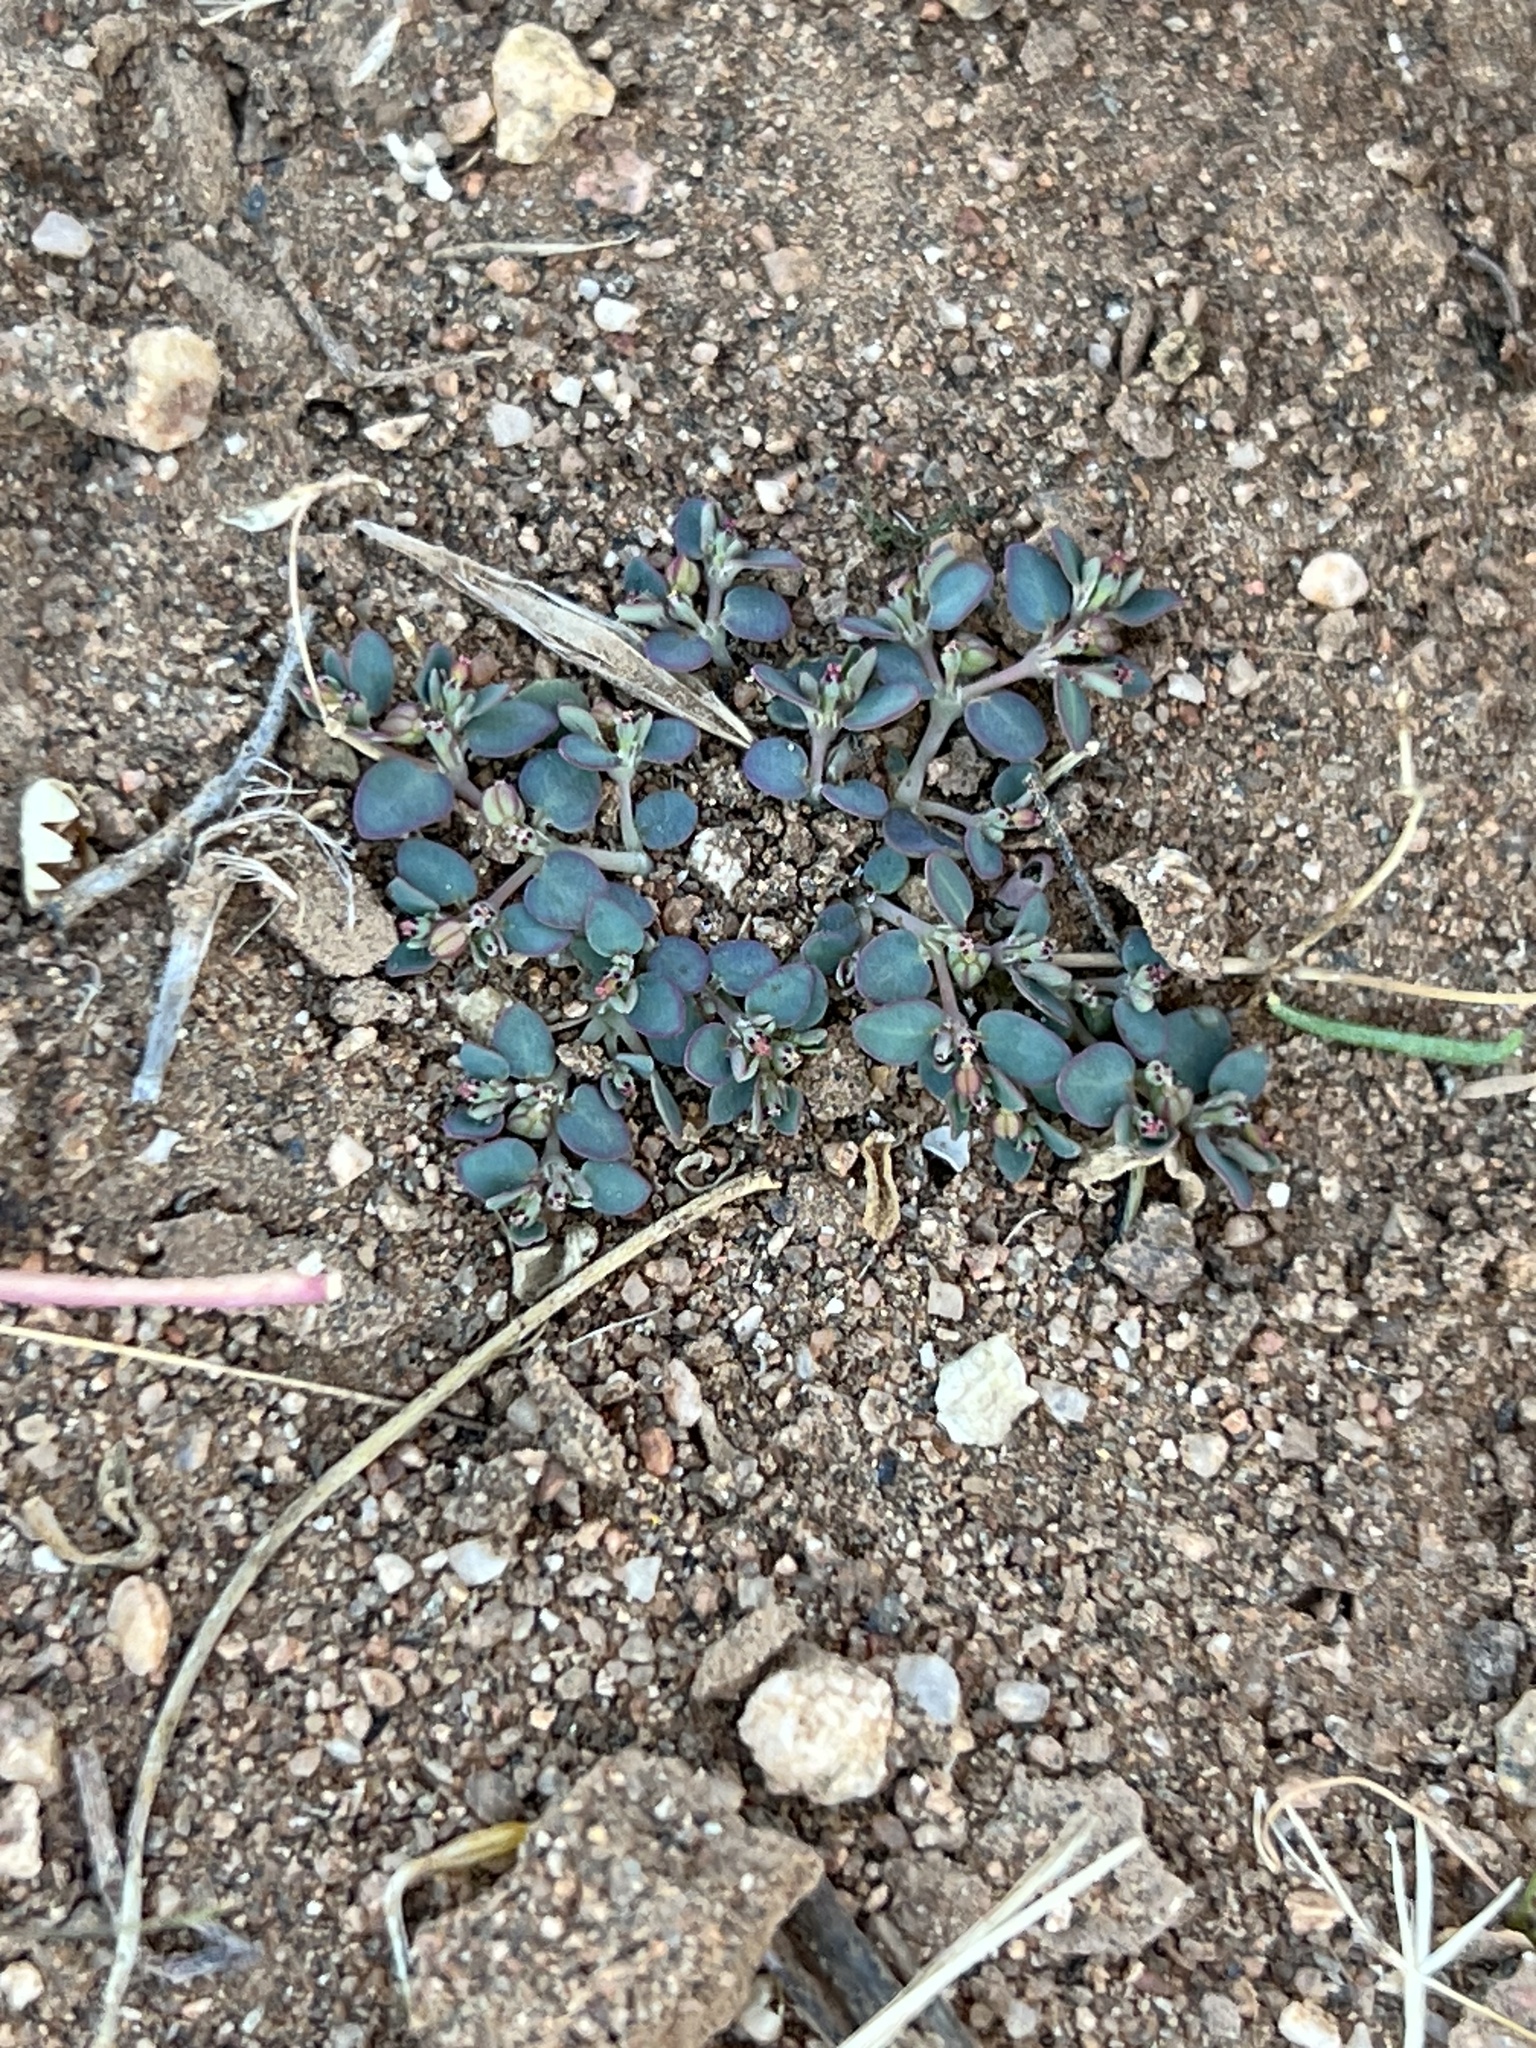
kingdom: Plantae
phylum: Tracheophyta
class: Magnoliopsida
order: Malpighiales
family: Euphorbiaceae
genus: Euphorbia
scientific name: Euphorbia micromera
